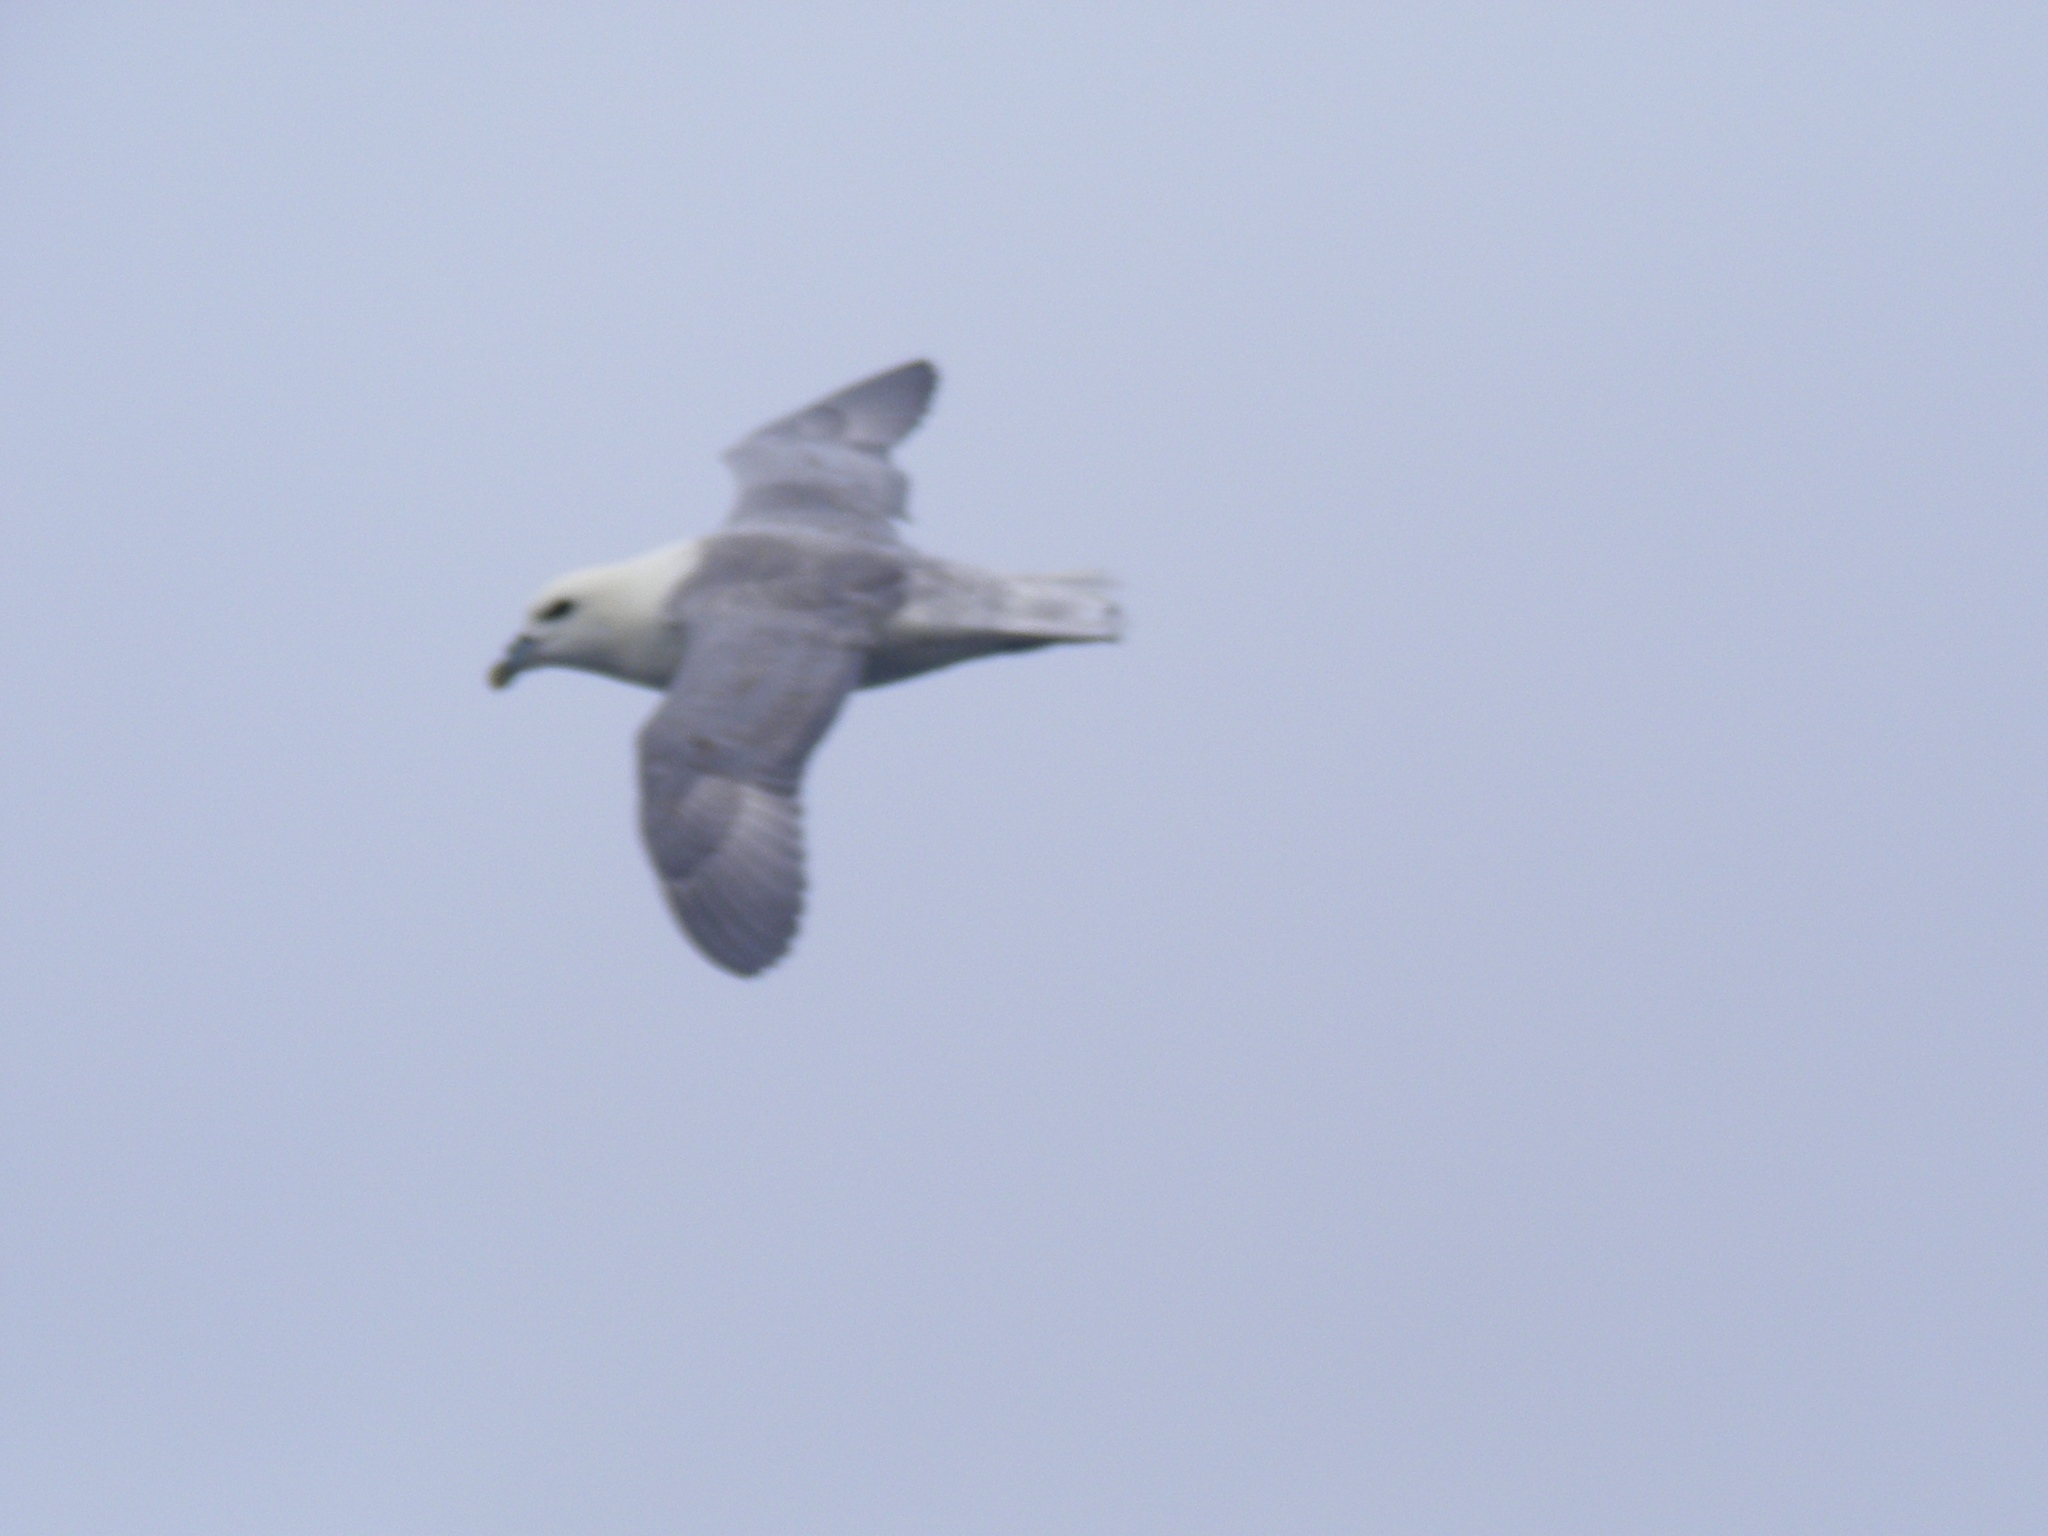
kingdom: Animalia
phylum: Chordata
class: Aves
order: Procellariiformes
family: Procellariidae
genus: Fulmarus
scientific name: Fulmarus glacialis
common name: Northern fulmar
